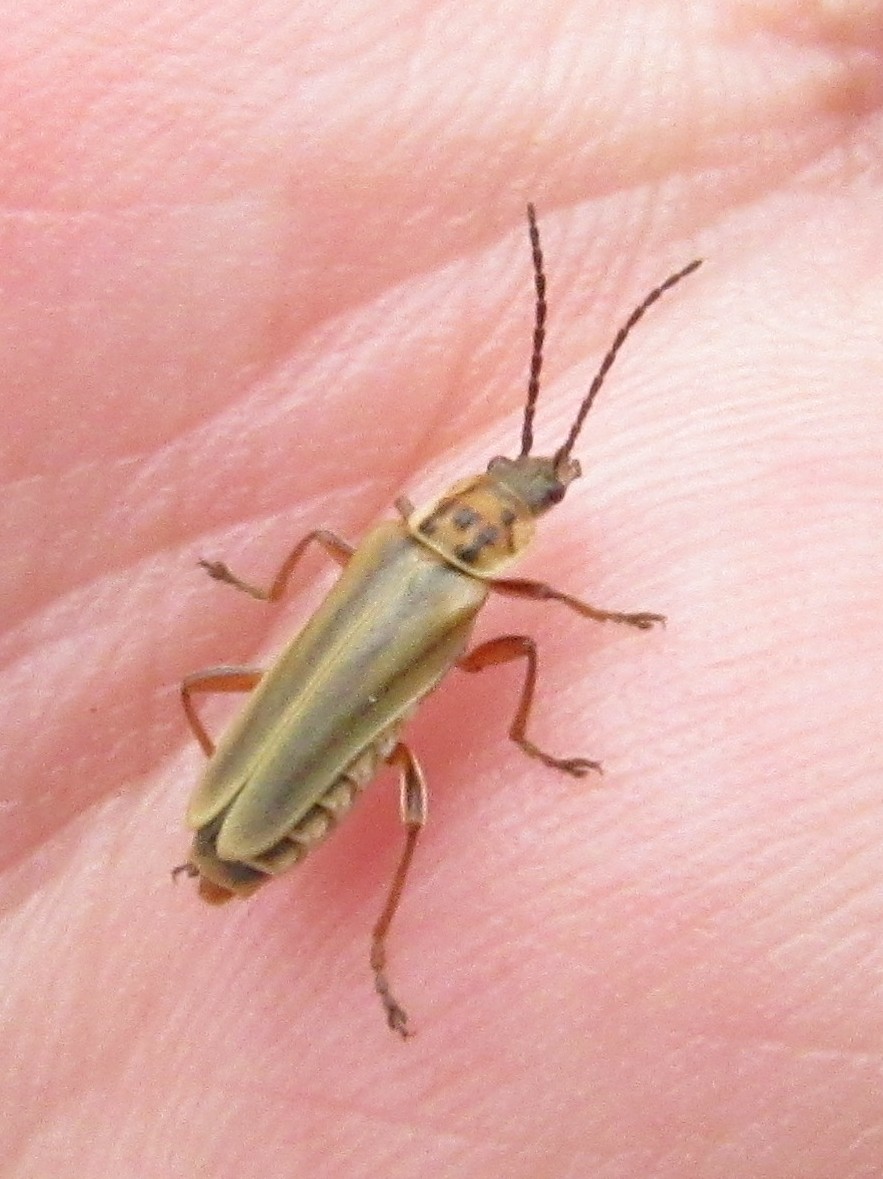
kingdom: Animalia
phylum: Arthropoda
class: Insecta
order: Coleoptera
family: Cantharidae
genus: Chauliognathus
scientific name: Chauliognathus
